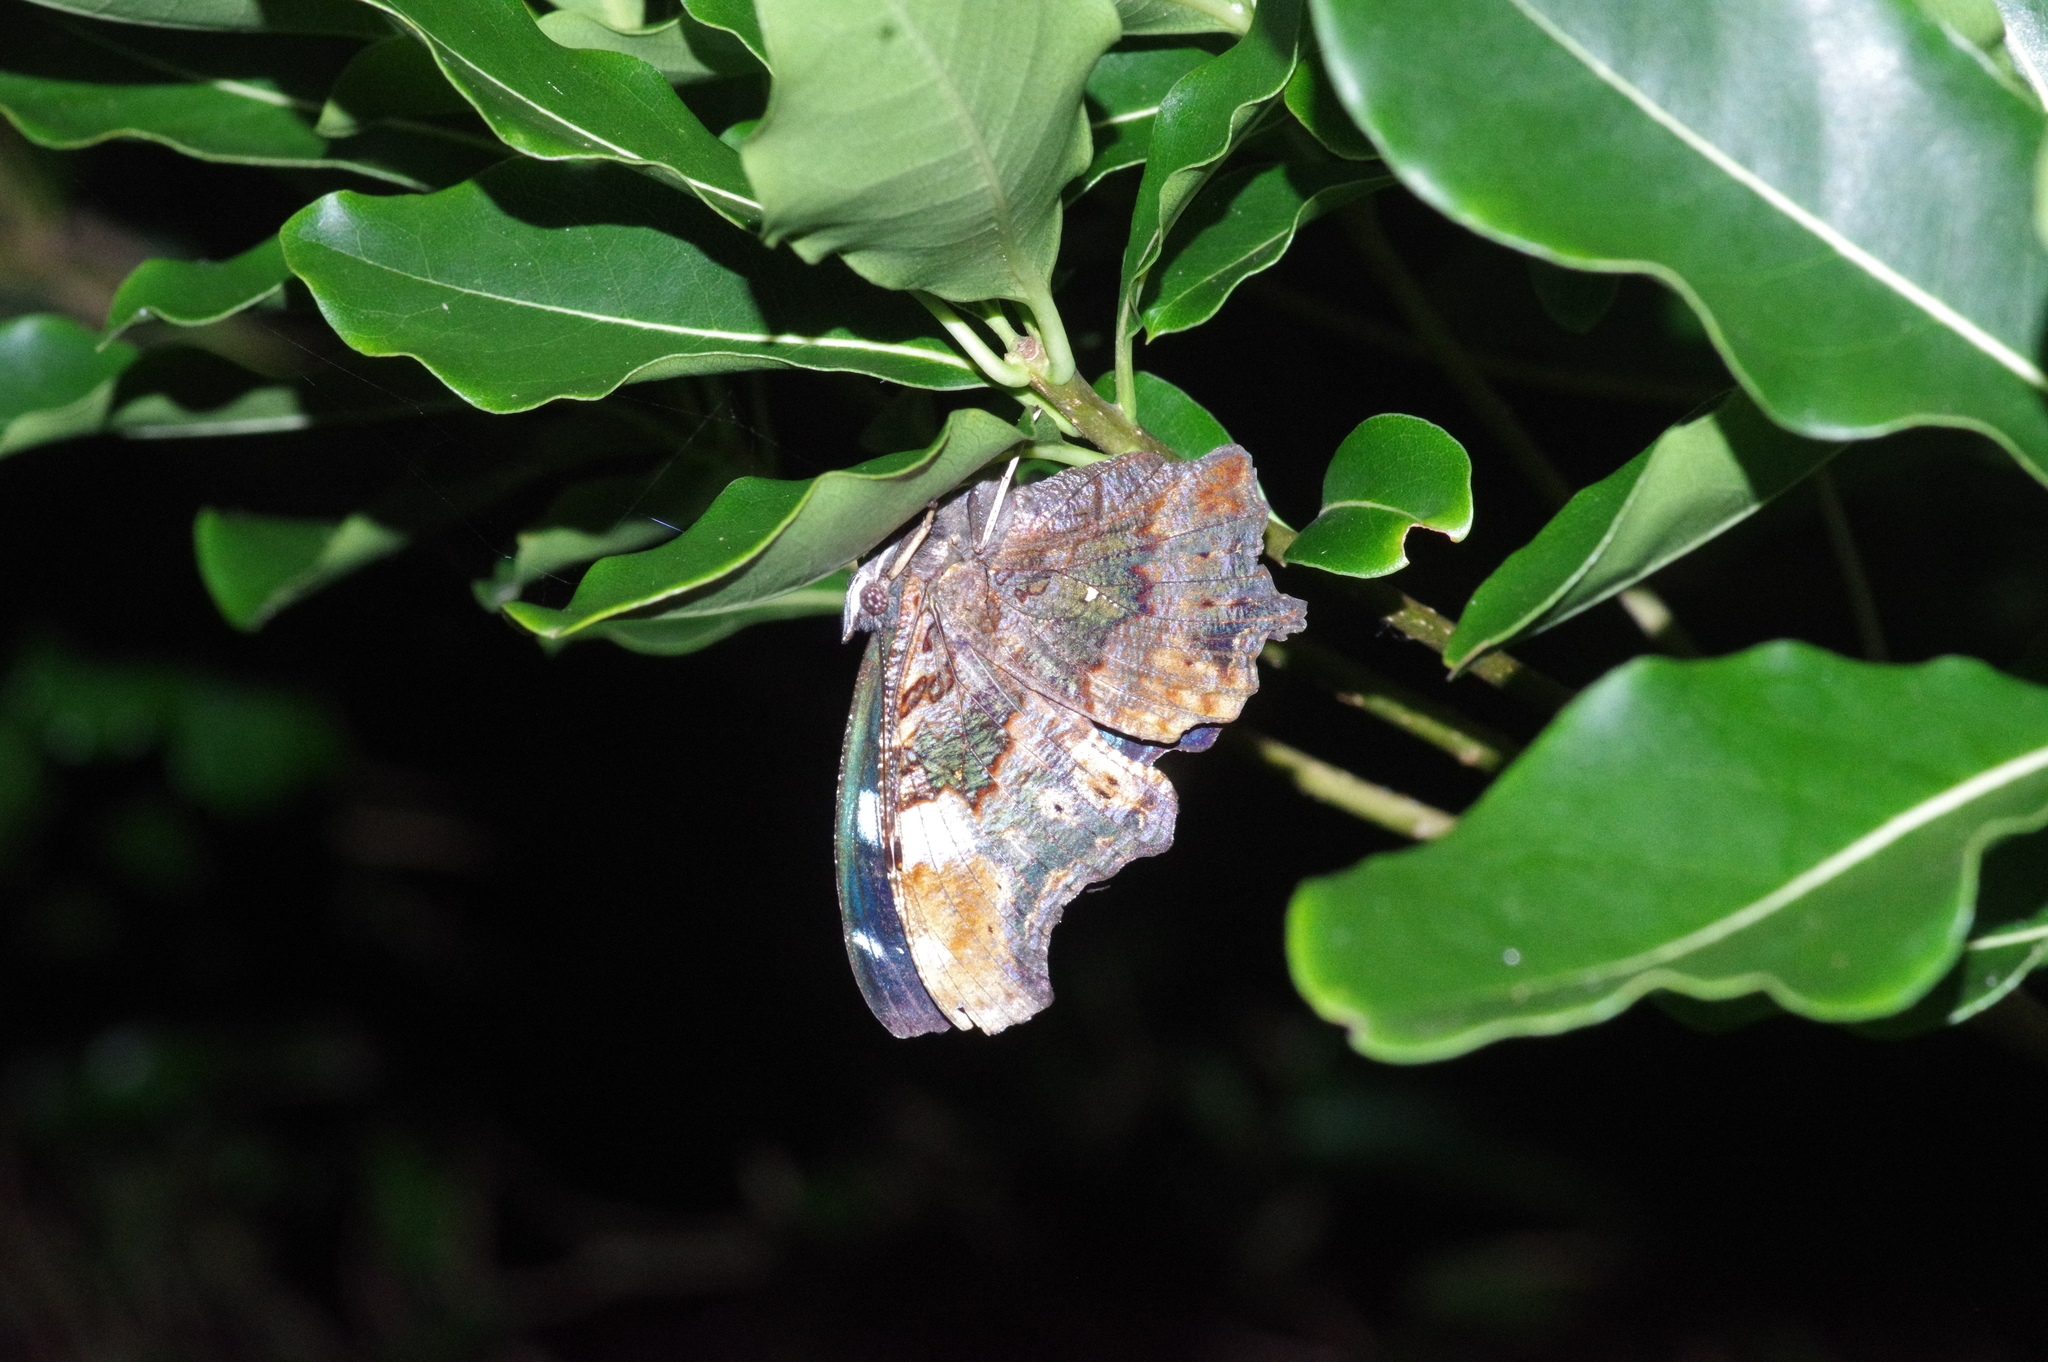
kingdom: Animalia
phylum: Arthropoda
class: Insecta
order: Lepidoptera
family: Nymphalidae
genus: Vanessa
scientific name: Vanessa Kaniska canace
